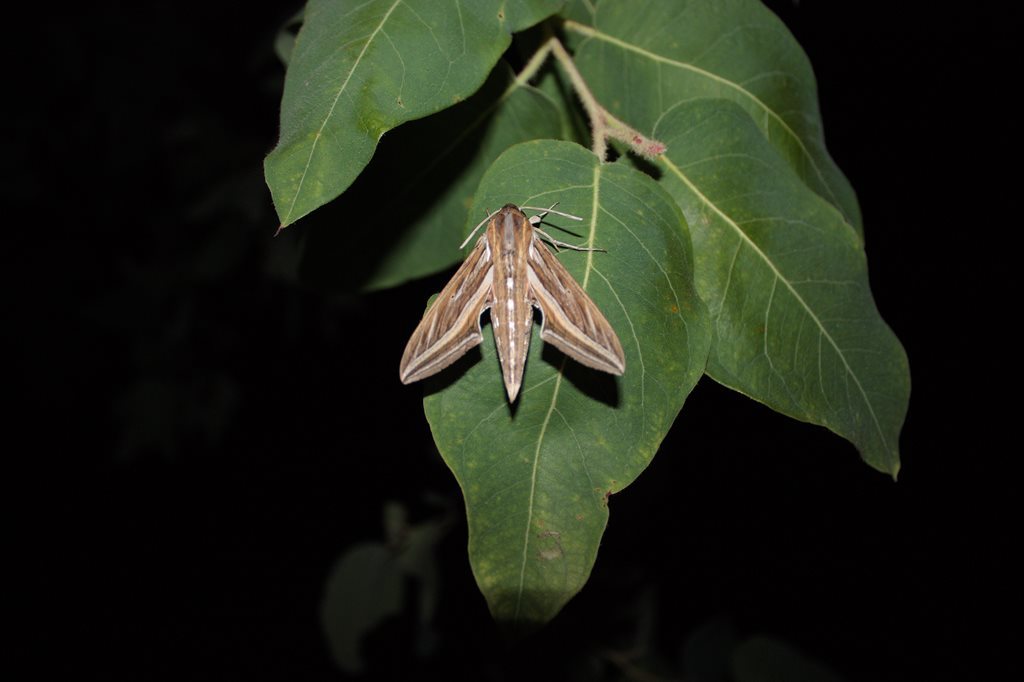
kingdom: Animalia
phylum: Arthropoda
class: Insecta
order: Lepidoptera
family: Sphingidae
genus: Hippotion
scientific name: Hippotion celerio
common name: Silver-striped hawk-moth
